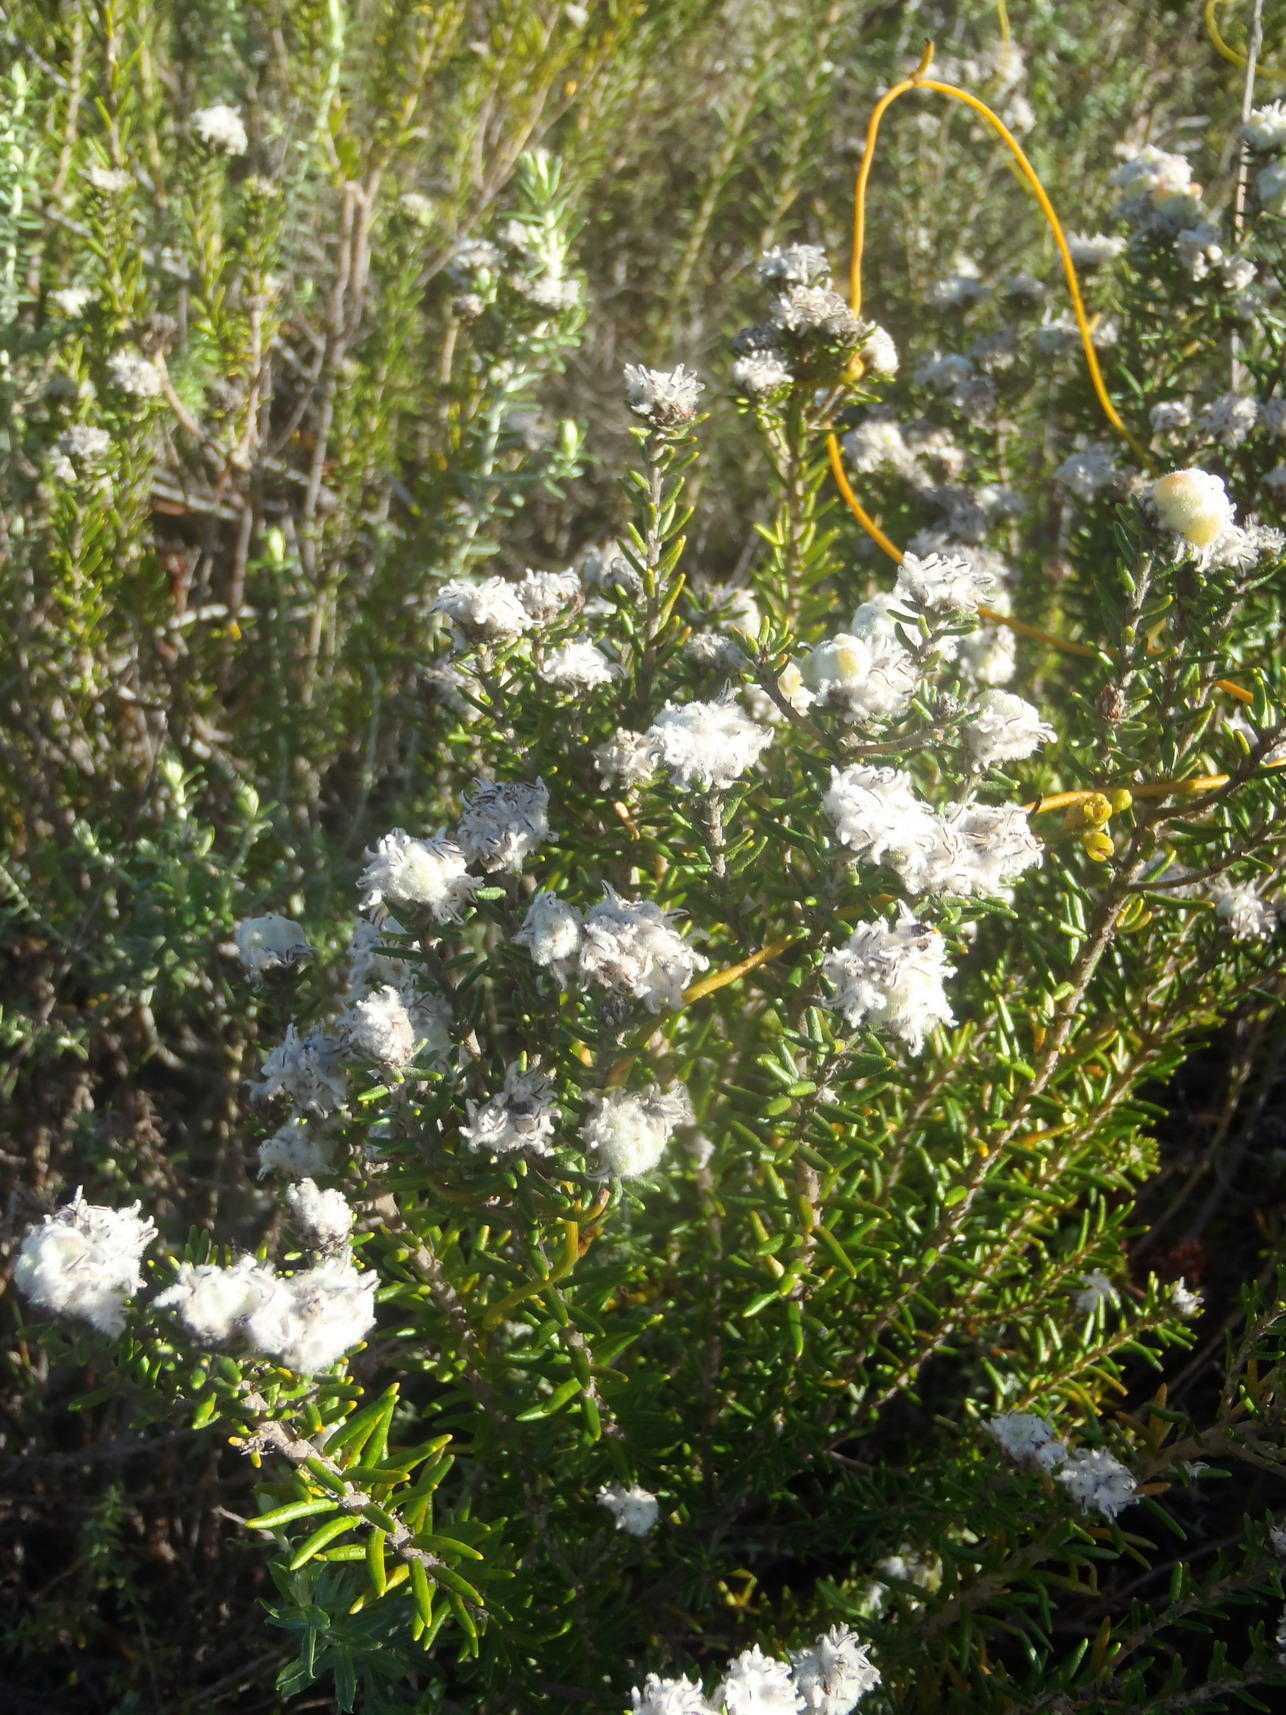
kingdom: Plantae
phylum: Tracheophyta
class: Magnoliopsida
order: Rosales
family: Rhamnaceae
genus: Trichocephalus
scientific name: Trichocephalus stipularis
